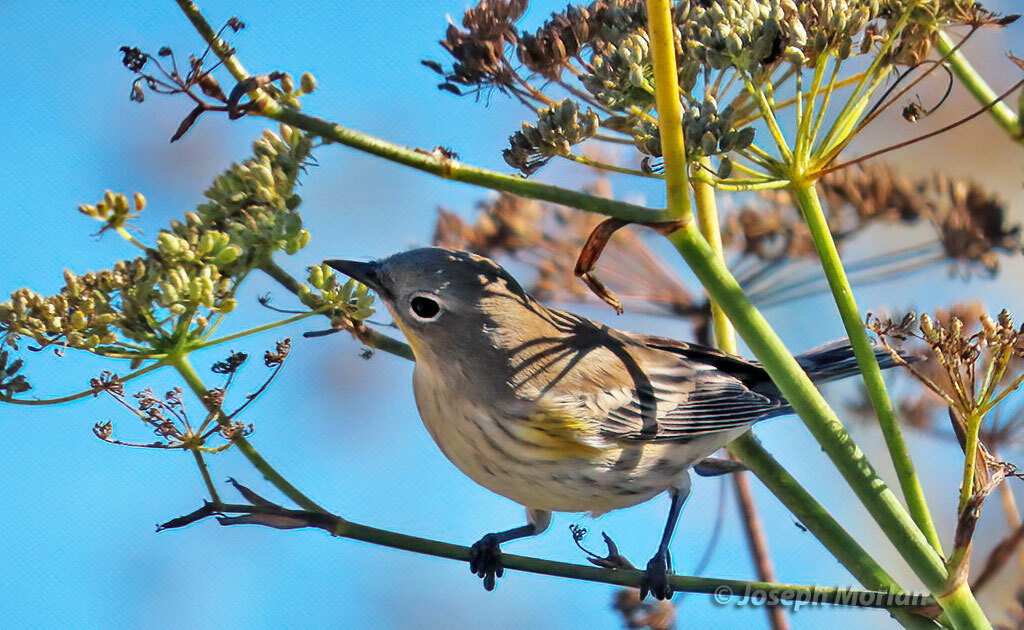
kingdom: Animalia
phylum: Chordata
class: Aves
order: Passeriformes
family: Parulidae
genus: Setophaga
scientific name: Setophaga coronata
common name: Myrtle warbler
